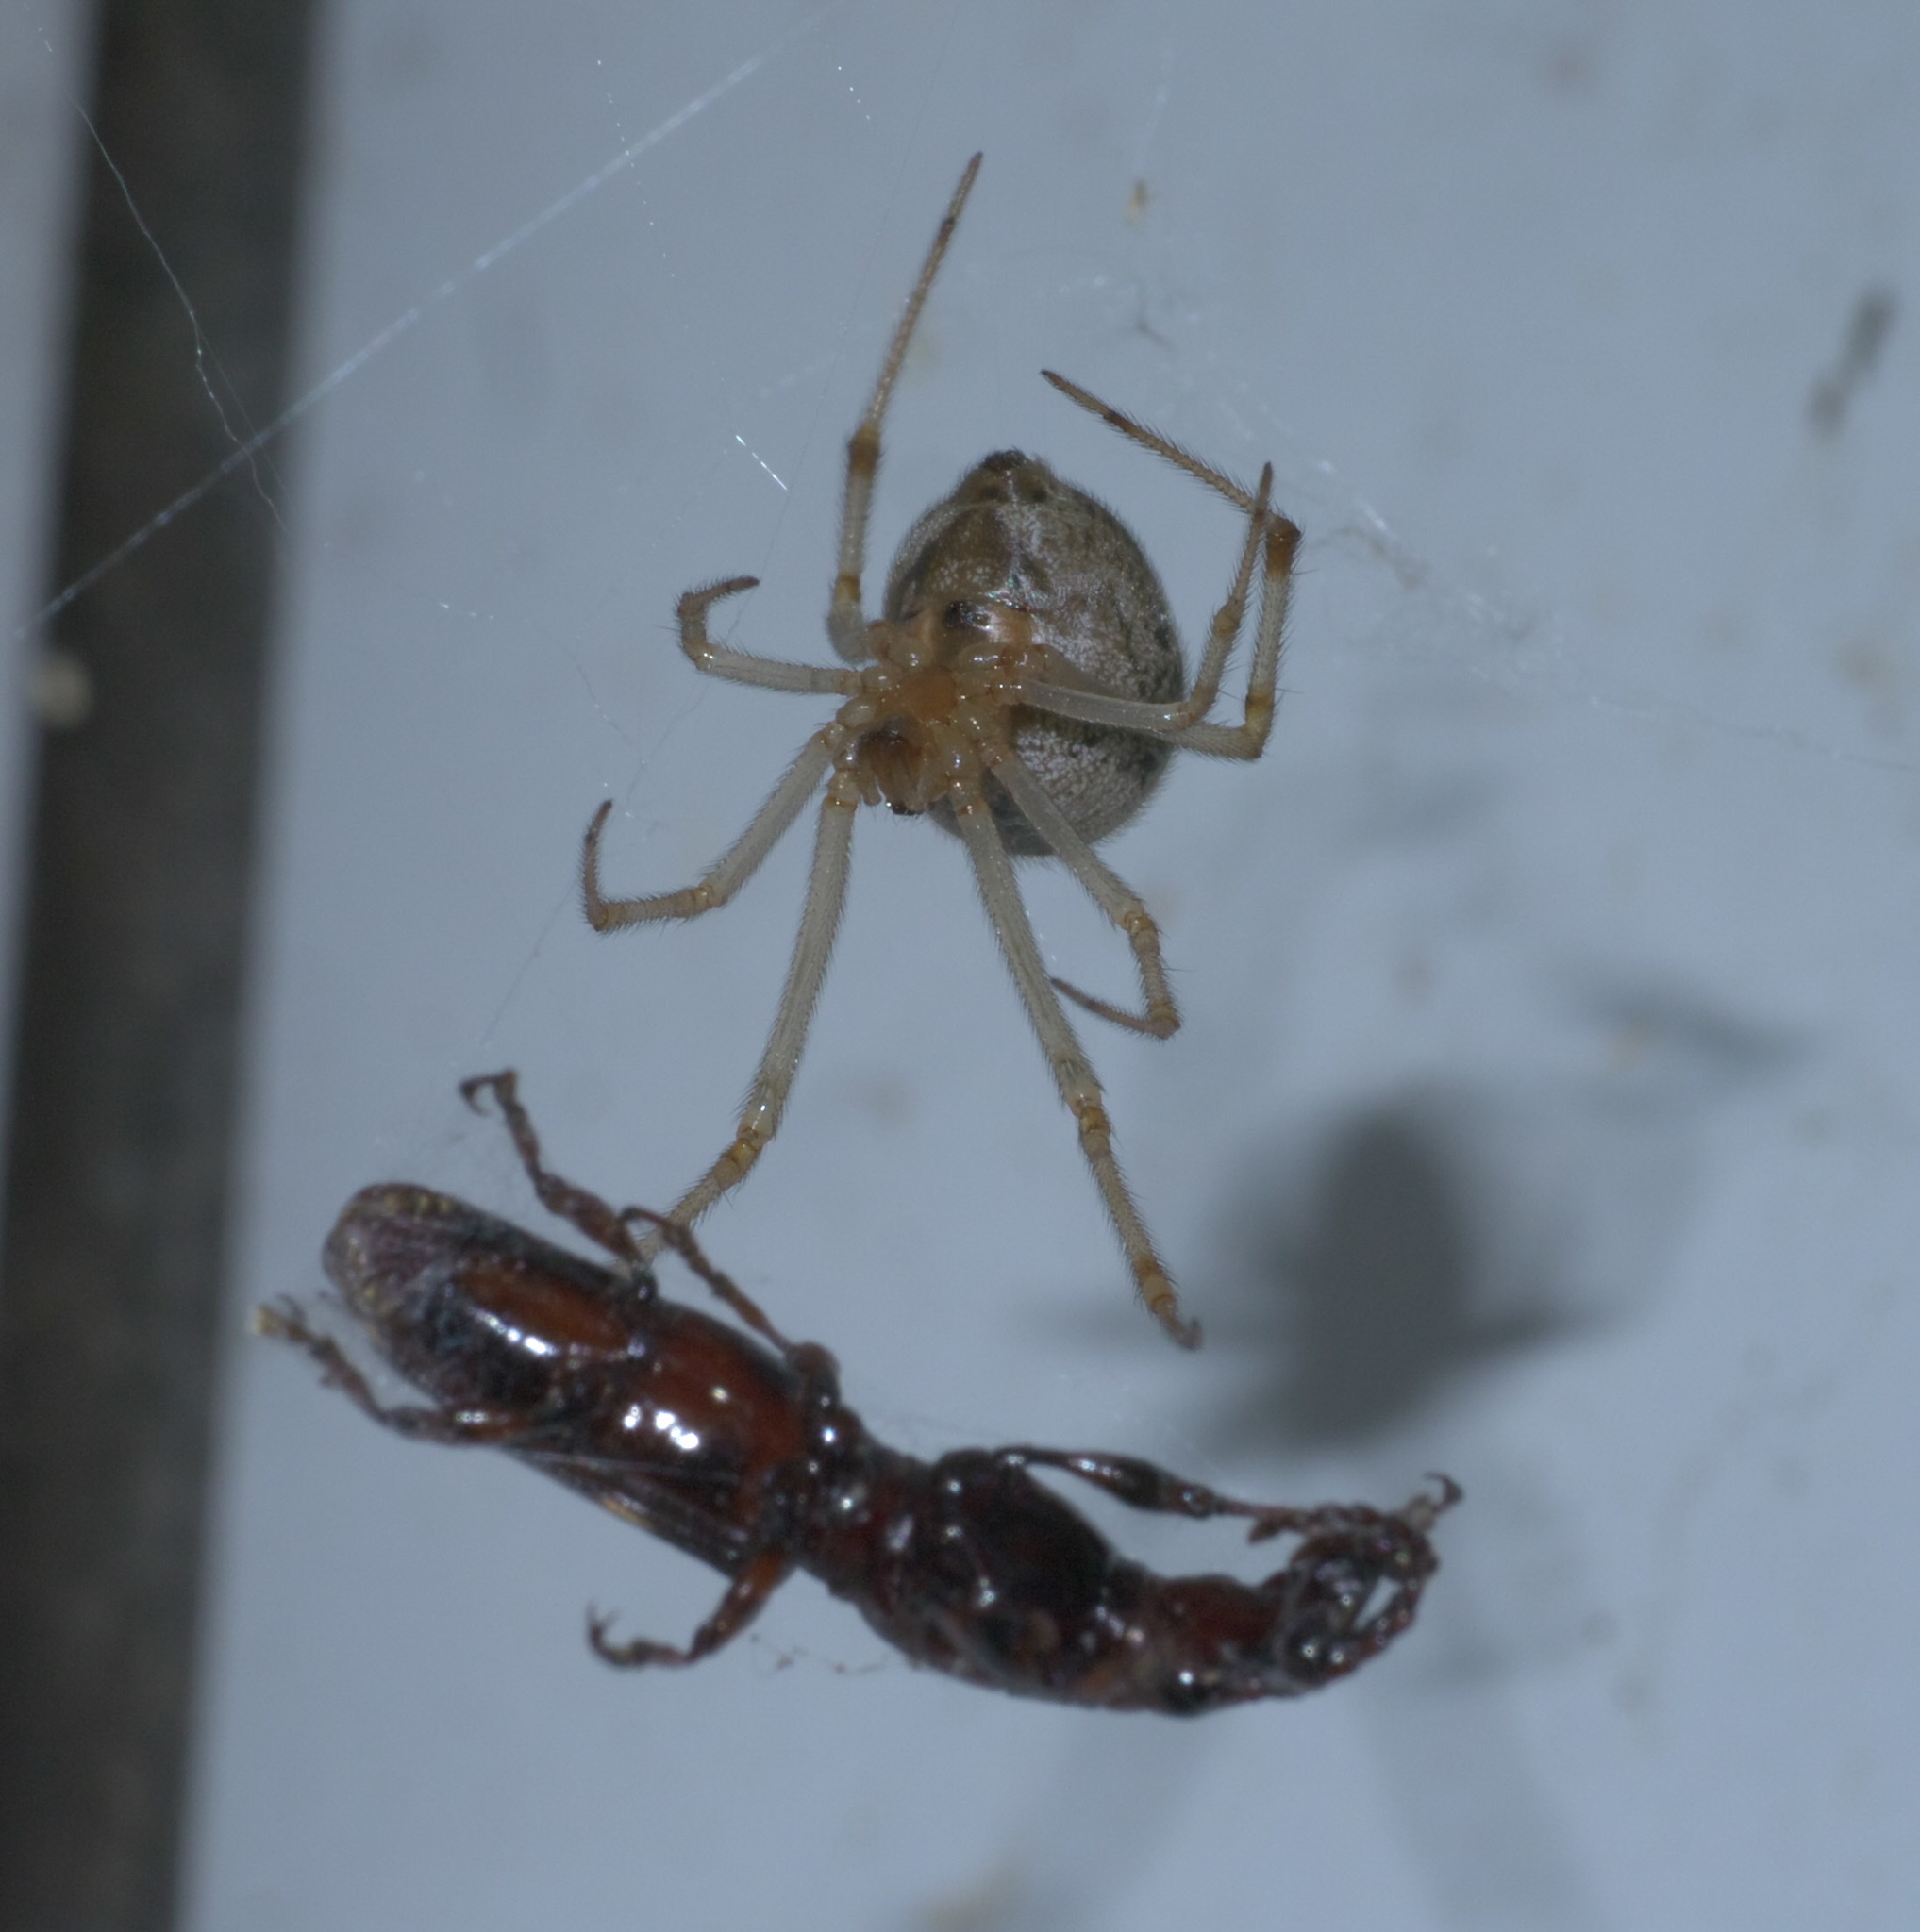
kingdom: Animalia
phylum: Arthropoda
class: Arachnida
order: Araneae
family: Theridiidae
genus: Parasteatoda
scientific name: Parasteatoda tepidariorum
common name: Common house spider
